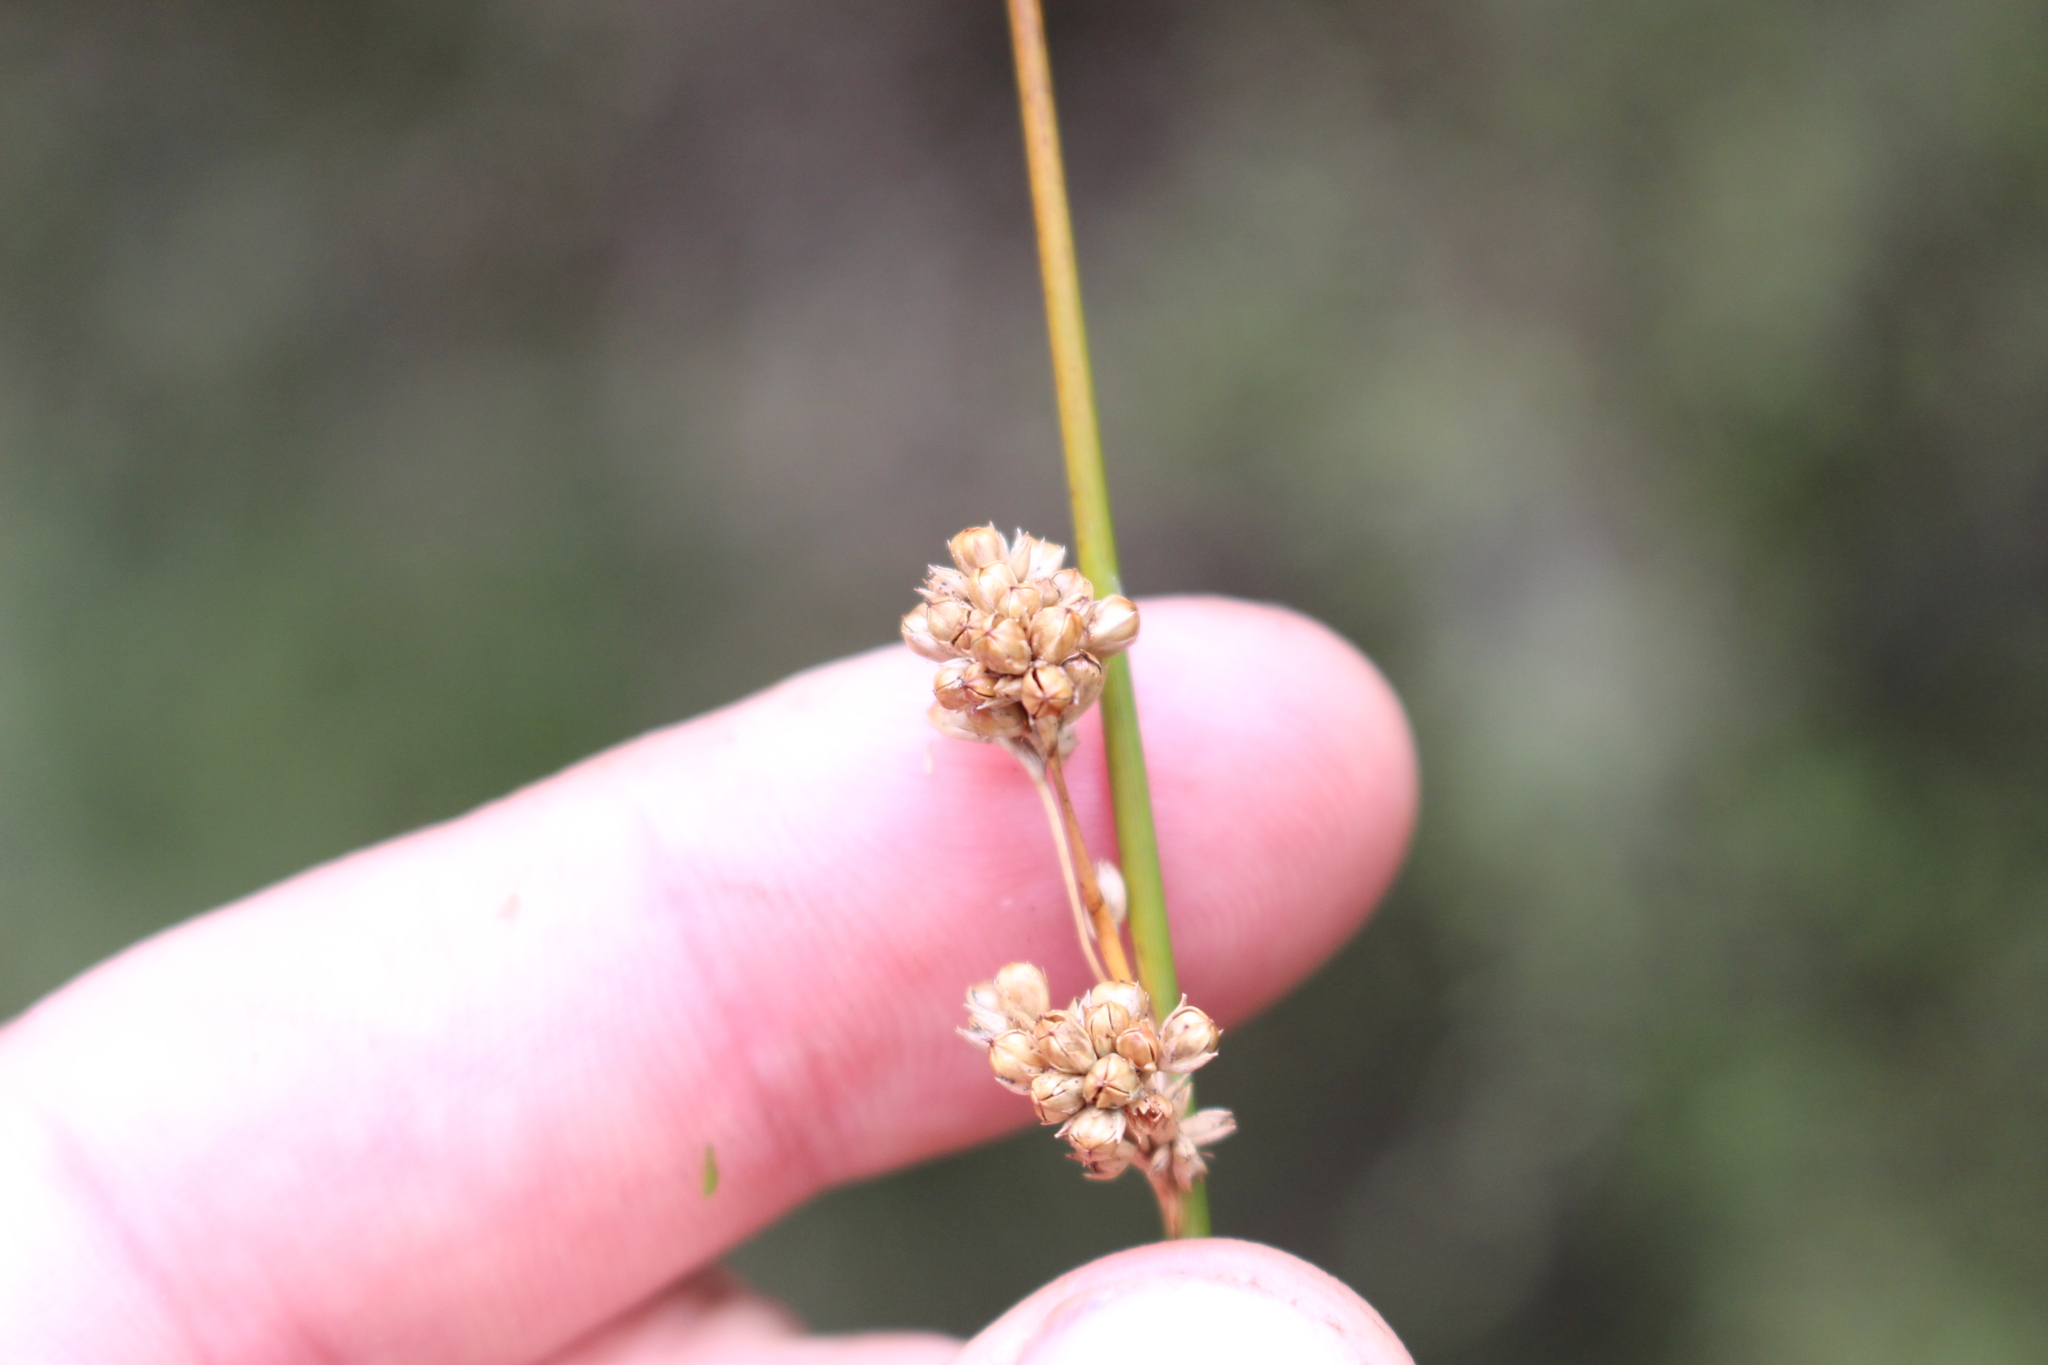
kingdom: Plantae
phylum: Tracheophyta
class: Liliopsida
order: Poales
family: Juncaceae
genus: Juncus
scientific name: Juncus edgariae
